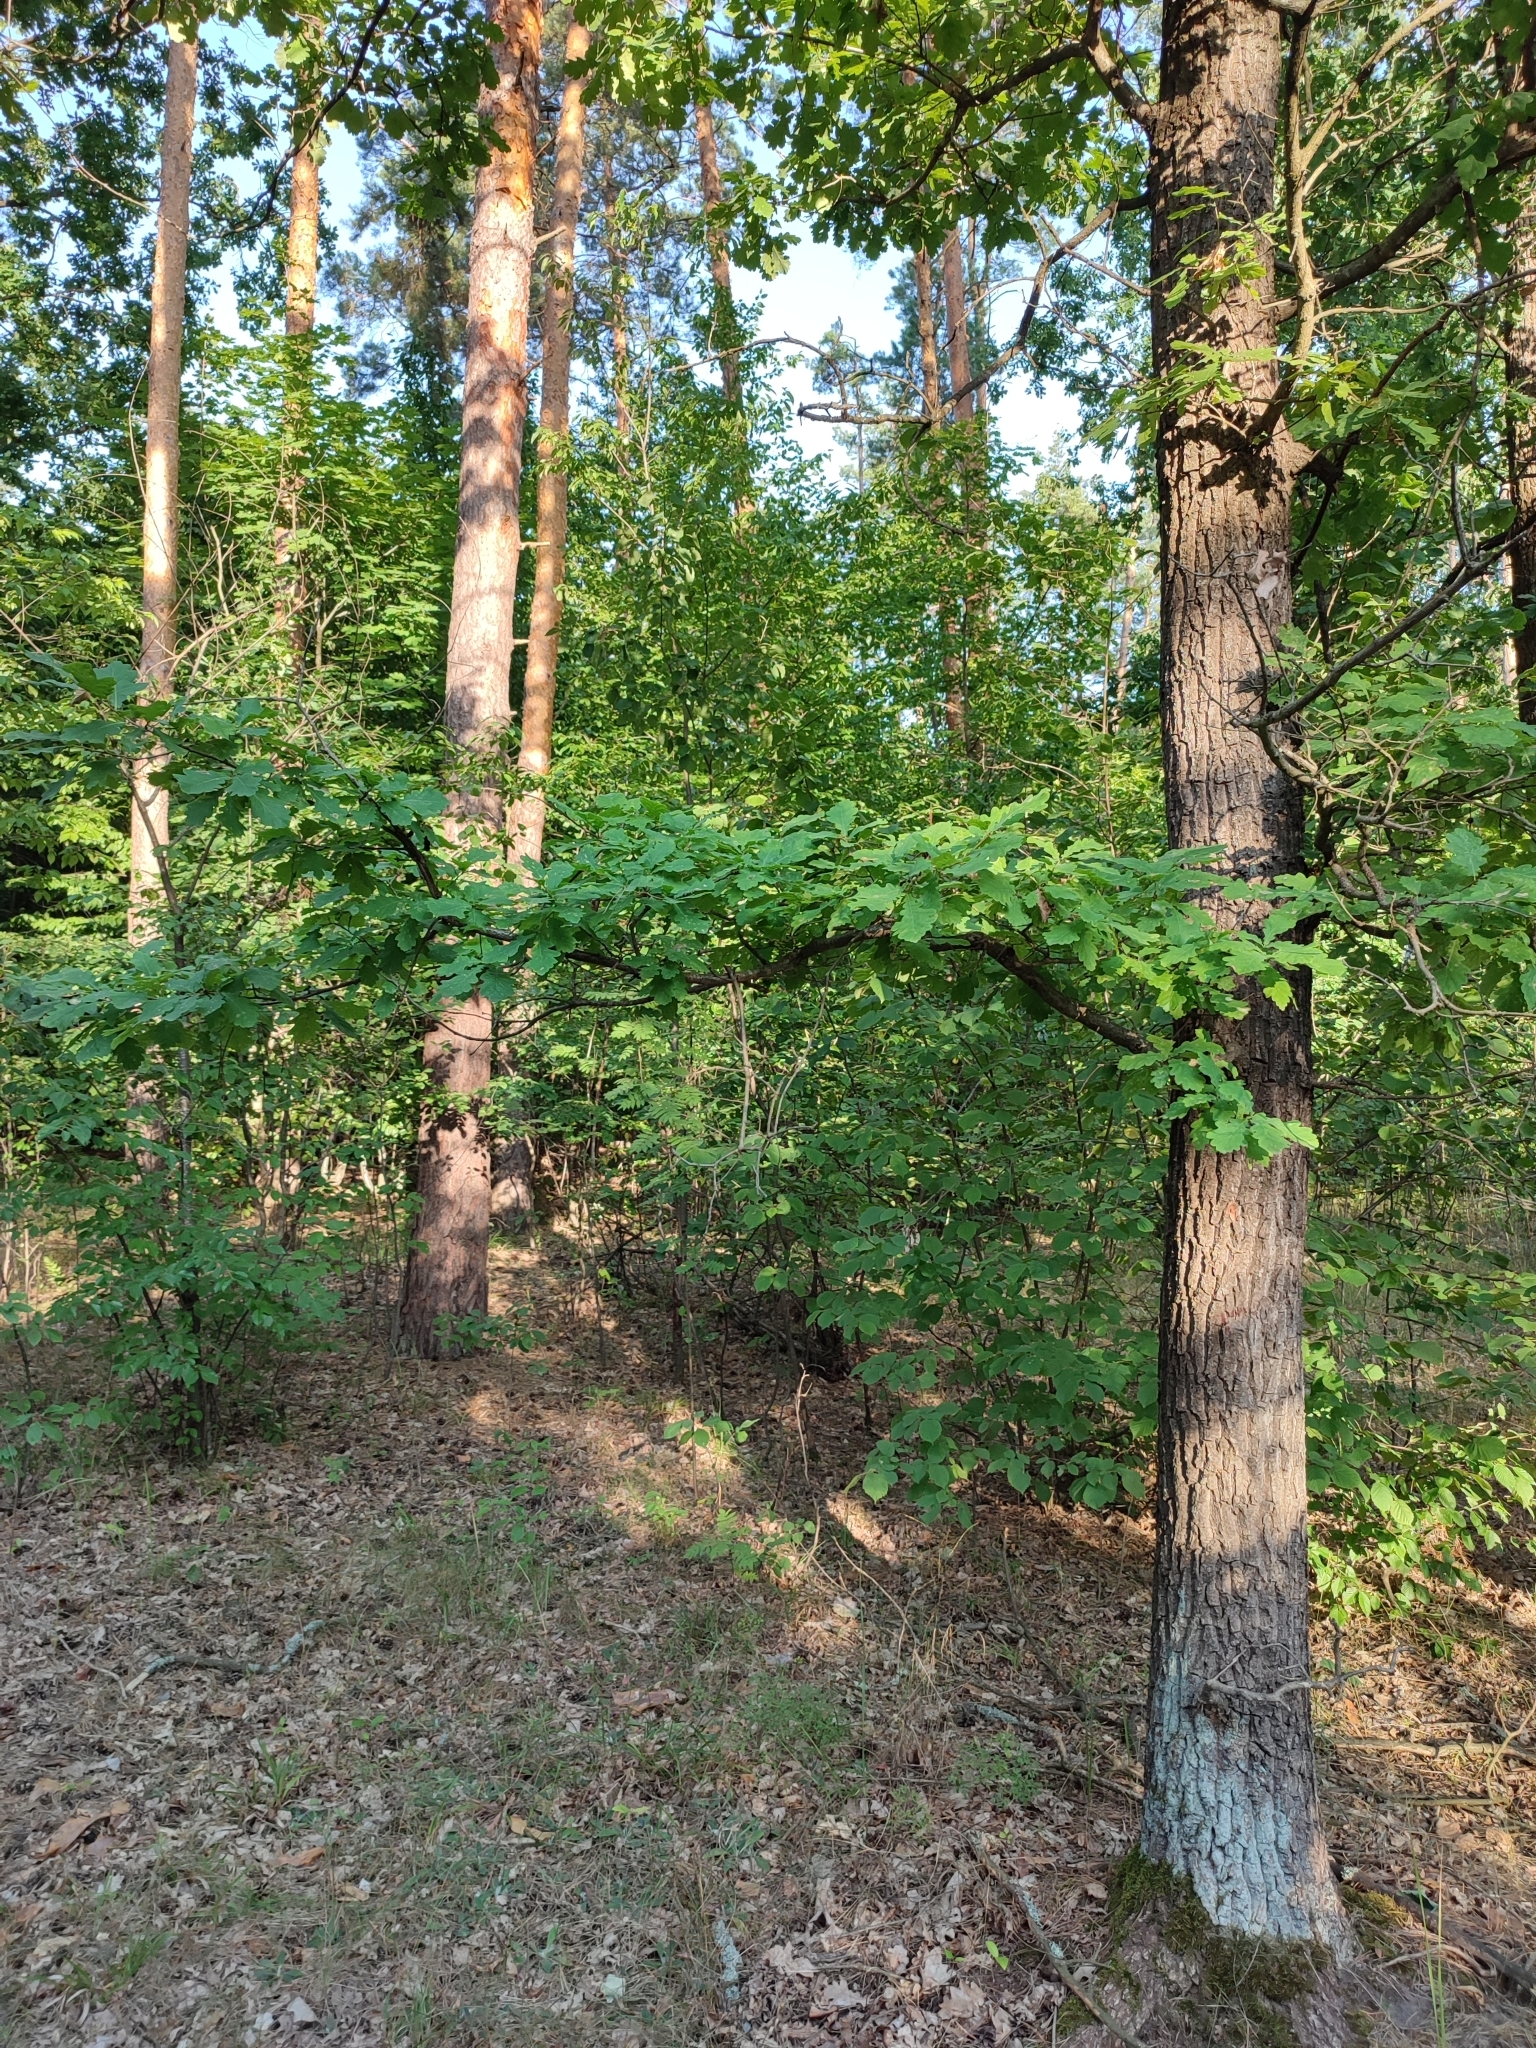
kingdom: Plantae
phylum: Tracheophyta
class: Magnoliopsida
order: Fagales
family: Fagaceae
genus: Quercus
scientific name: Quercus robur
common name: Pedunculate oak
